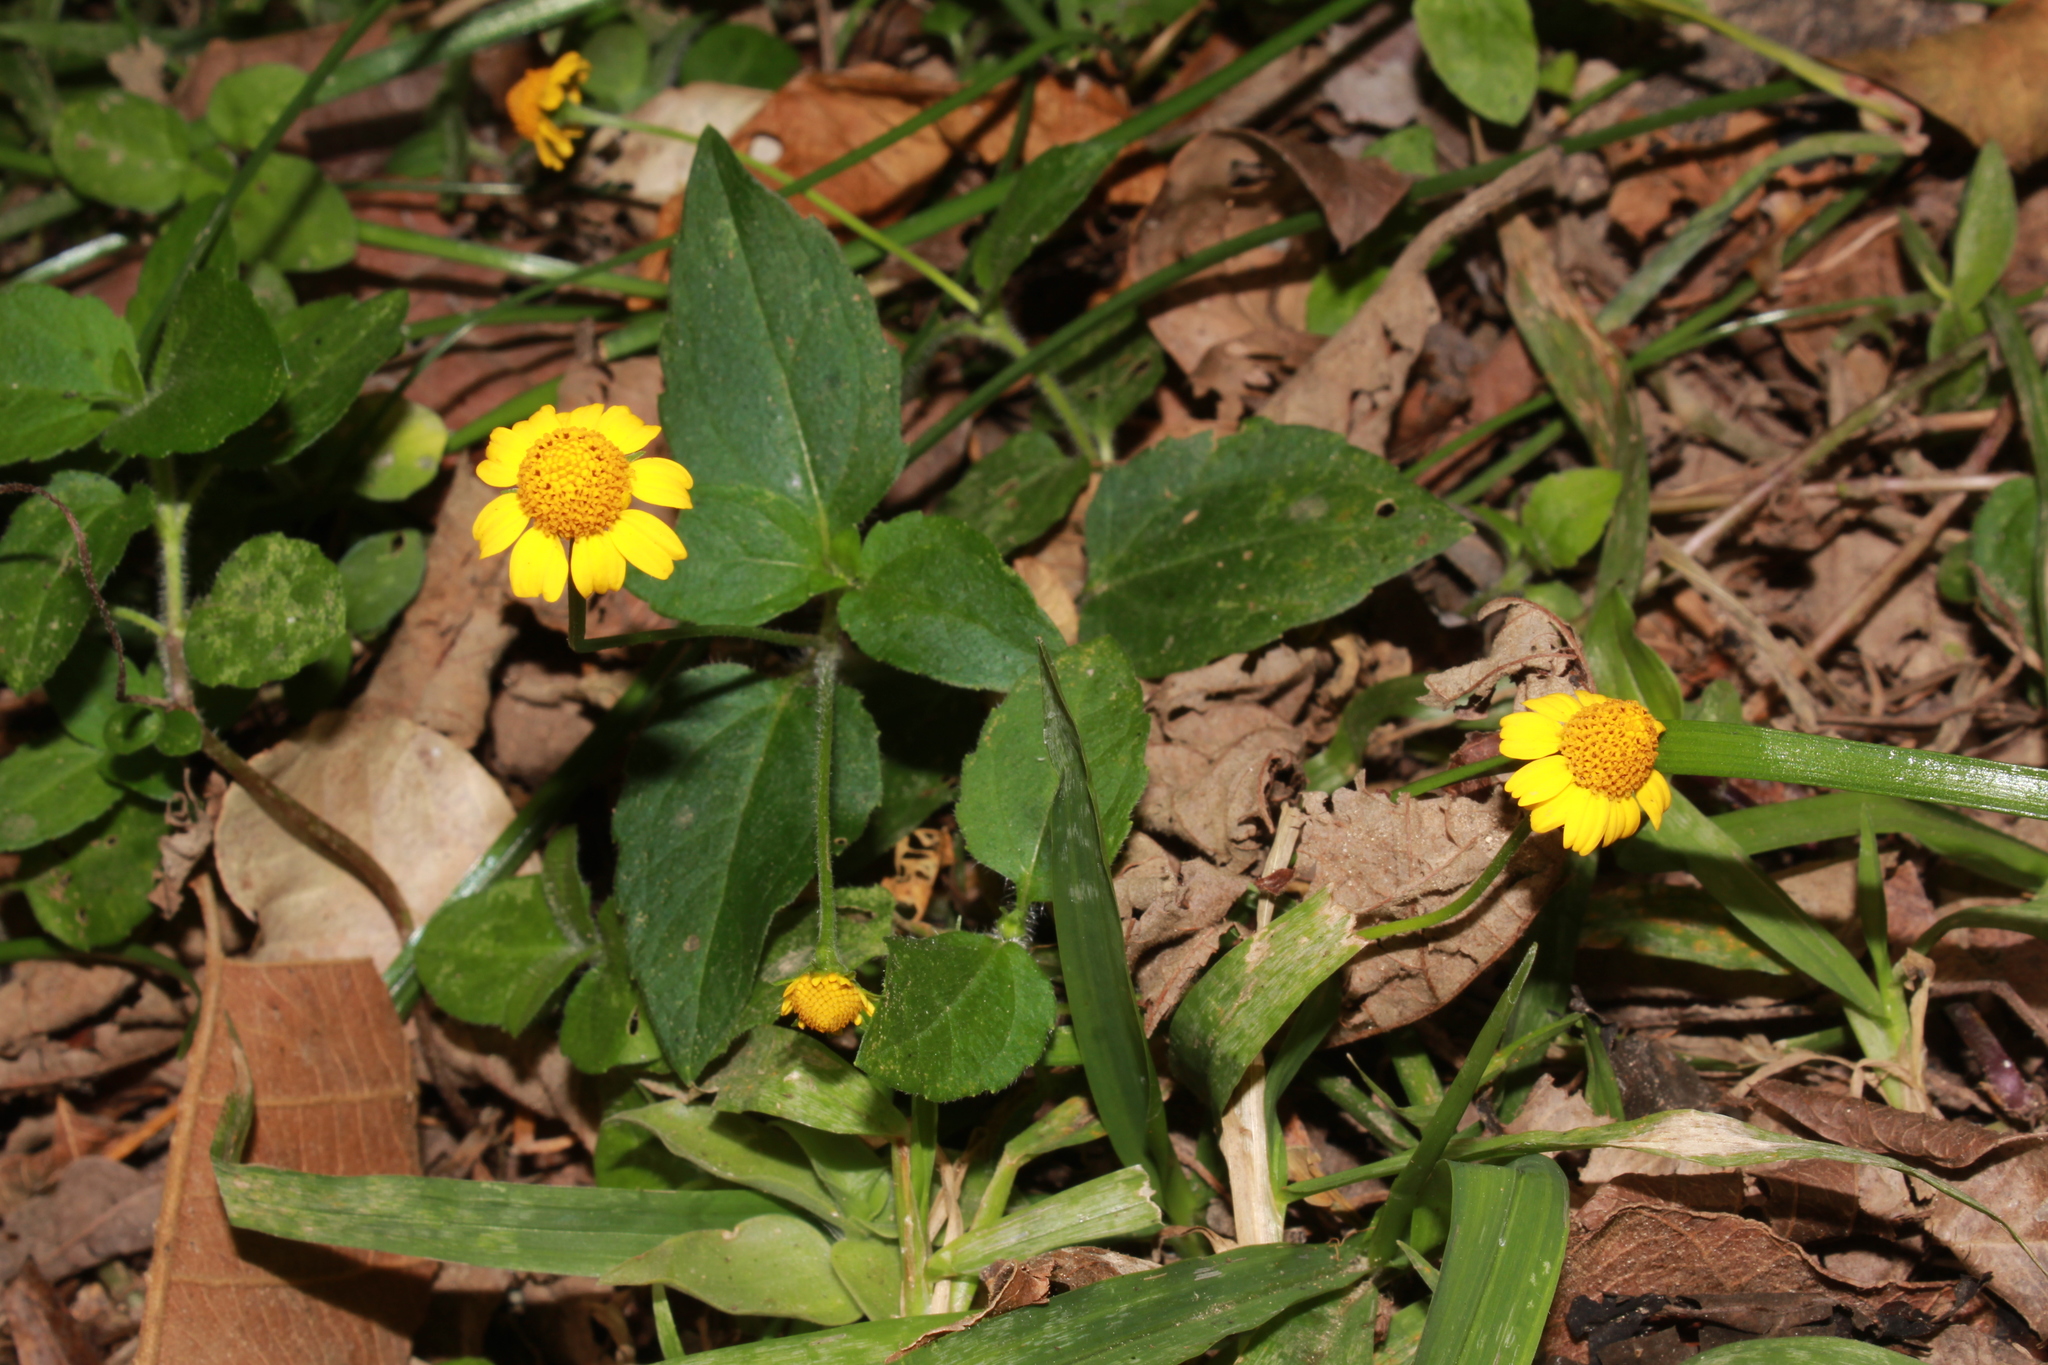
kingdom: Plantae
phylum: Tracheophyta
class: Magnoliopsida
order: Asterales
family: Asteraceae
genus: Acmella
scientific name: Acmella repens
